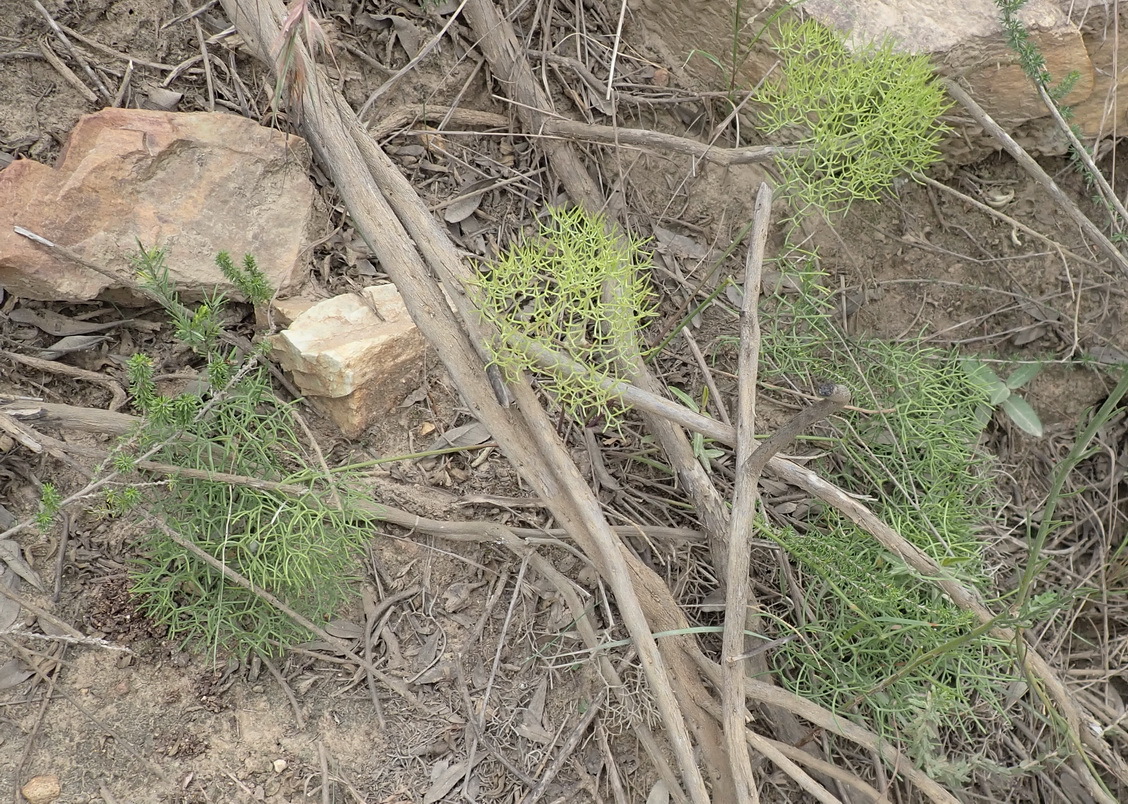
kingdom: Plantae
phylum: Tracheophyta
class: Magnoliopsida
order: Apiales
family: Apiaceae
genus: Nanobubon
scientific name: Nanobubon capillaceum
